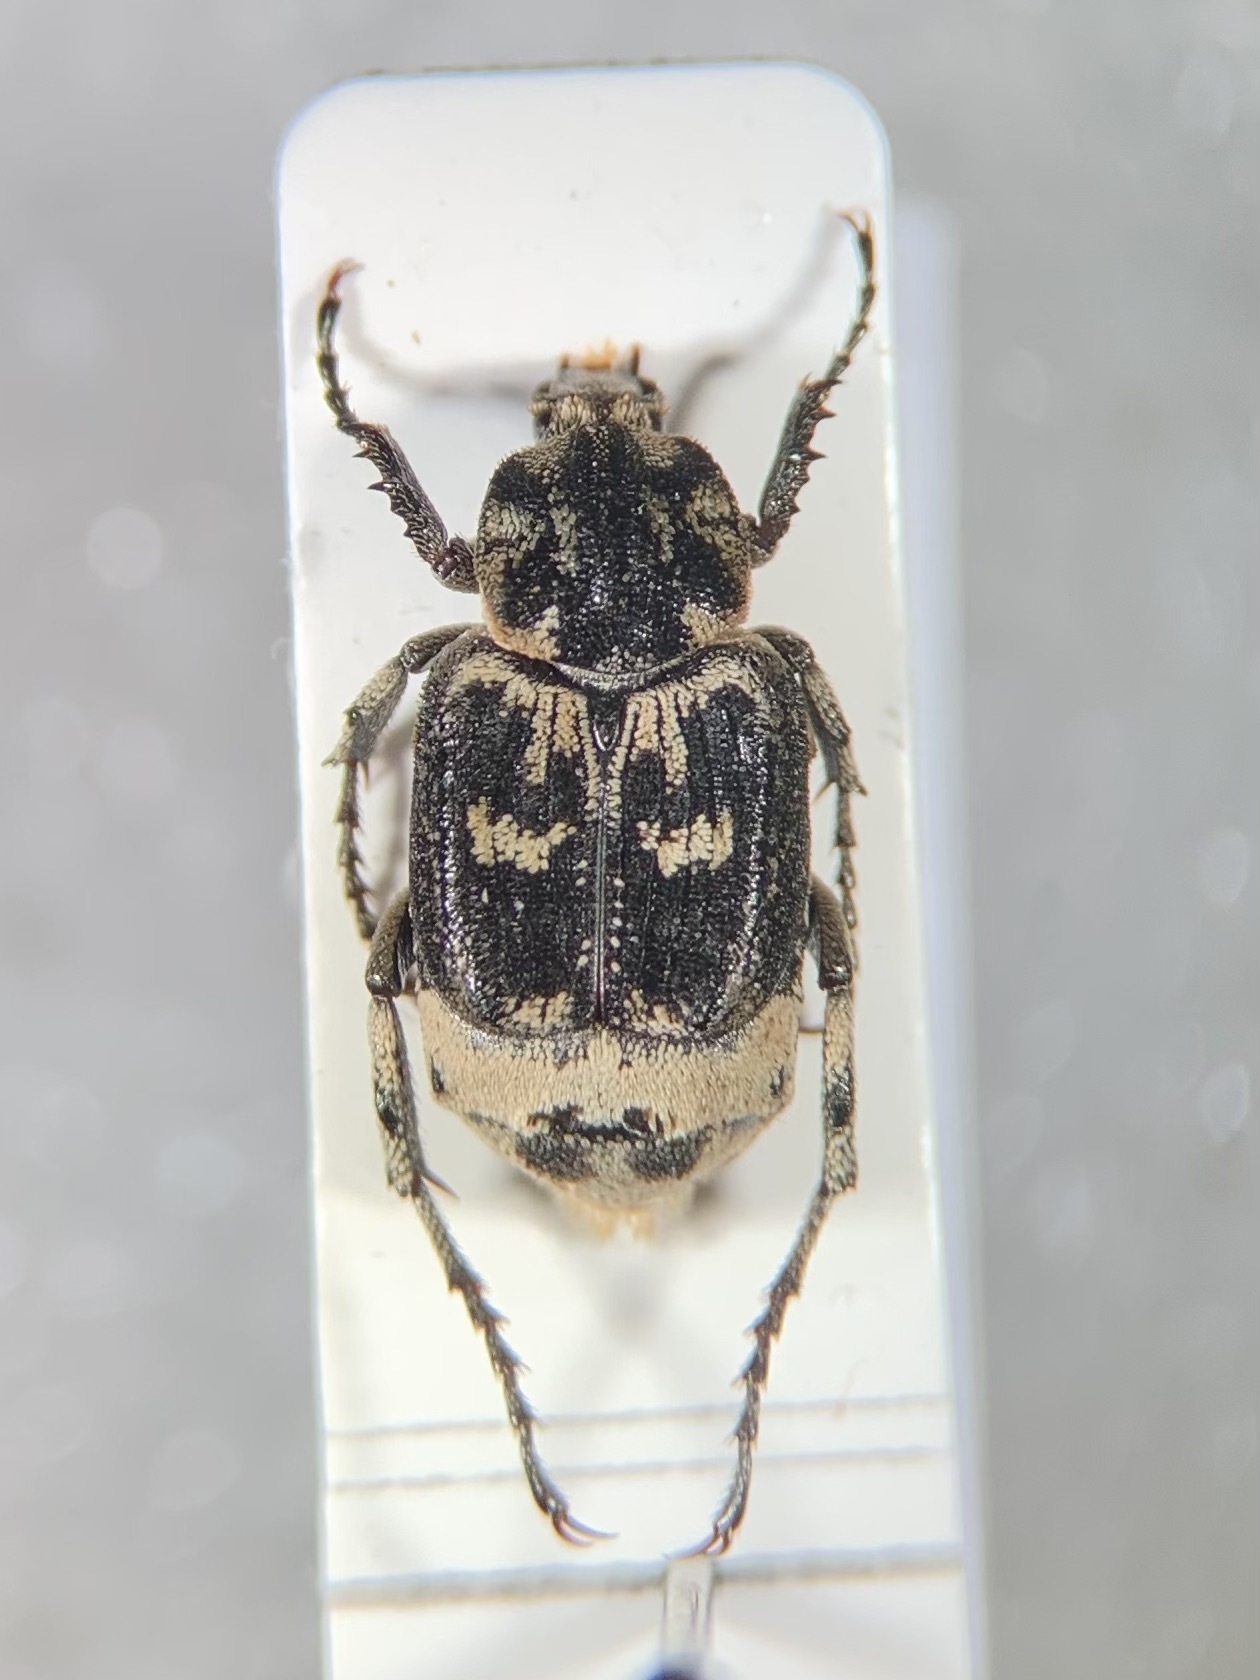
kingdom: Animalia
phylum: Arthropoda
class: Insecta
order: Coleoptera
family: Scarabaeidae
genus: Valgus
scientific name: Valgus hemipterus
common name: Bug flower chafer
